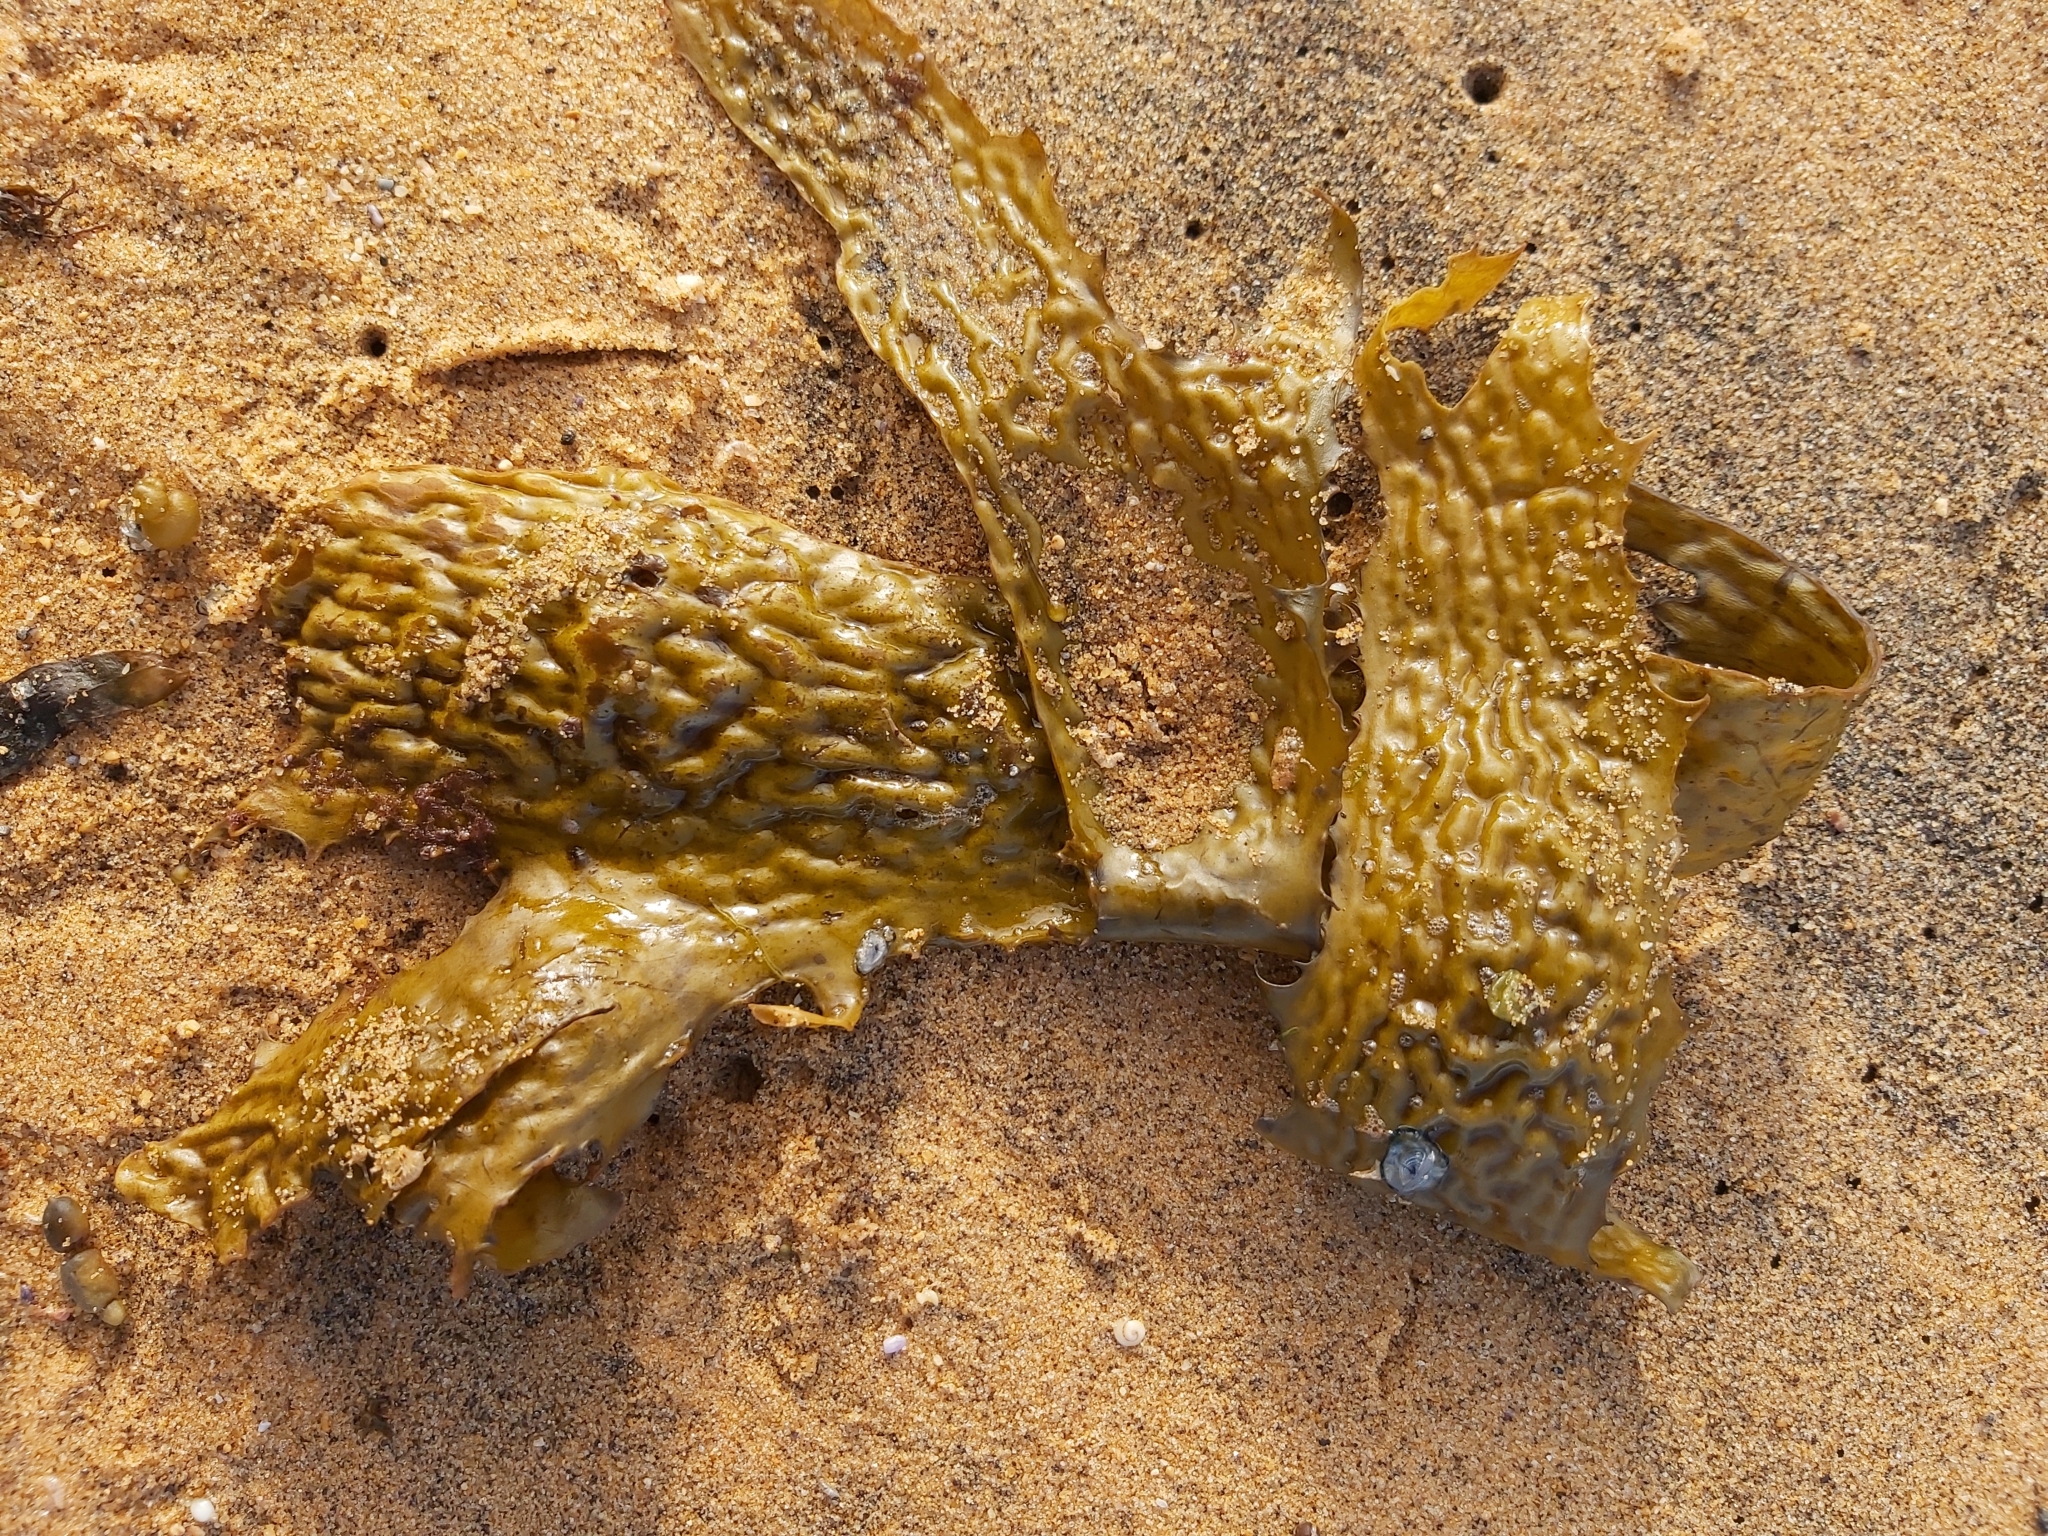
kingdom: Chromista
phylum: Ochrophyta
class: Phaeophyceae
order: Laminariales
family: Lessoniaceae
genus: Ecklonia
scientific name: Ecklonia radiata
